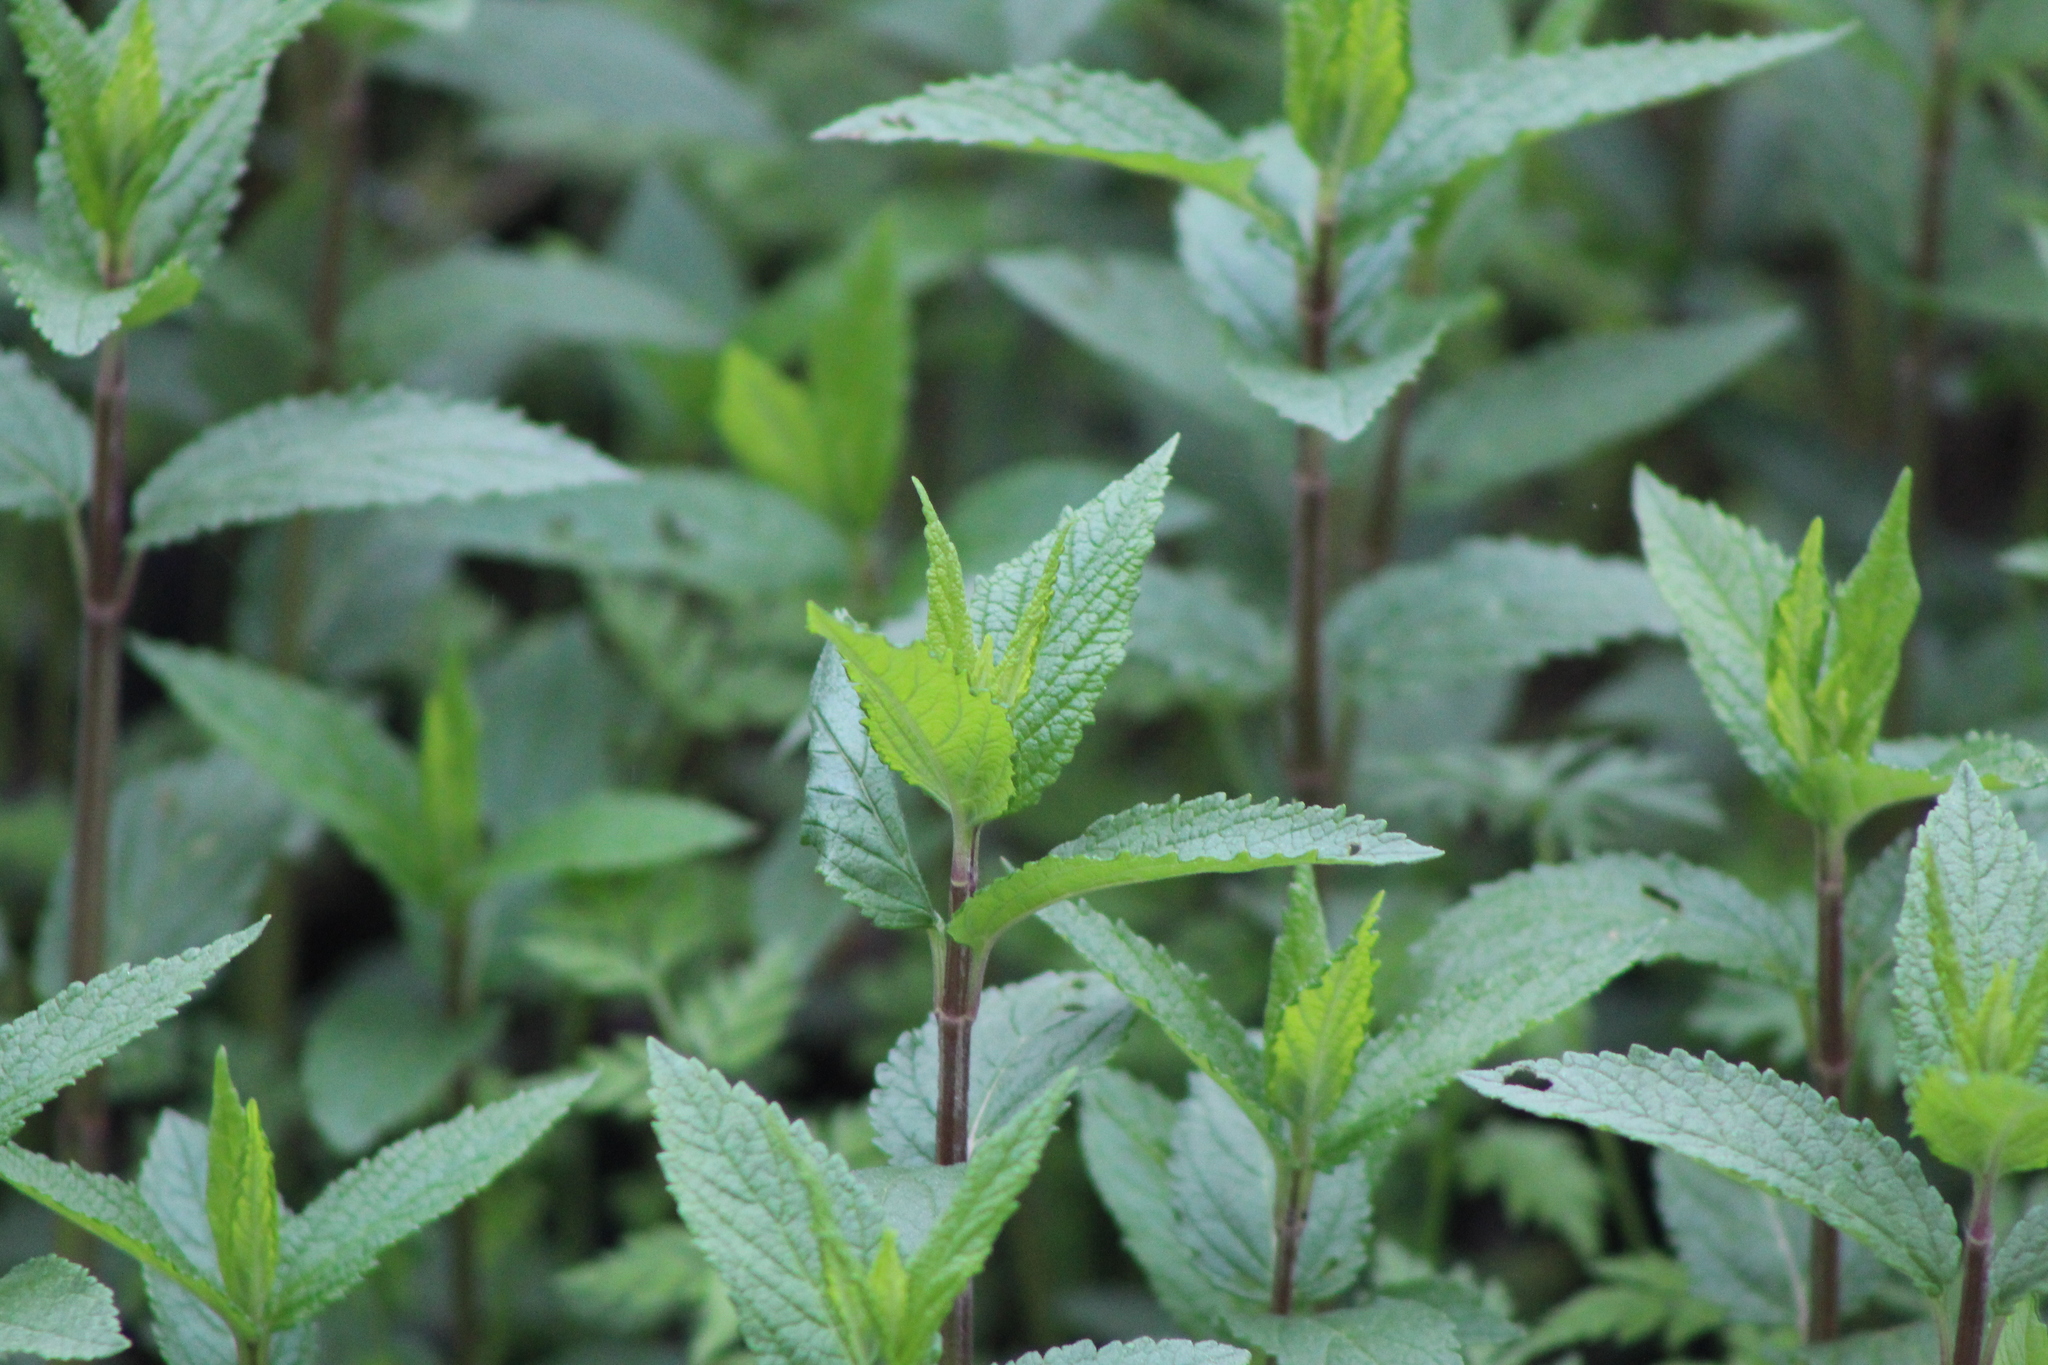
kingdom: Plantae
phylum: Tracheophyta
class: Magnoliopsida
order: Lamiales
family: Lamiaceae
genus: Teucrium
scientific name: Teucrium canadense
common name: American germander
